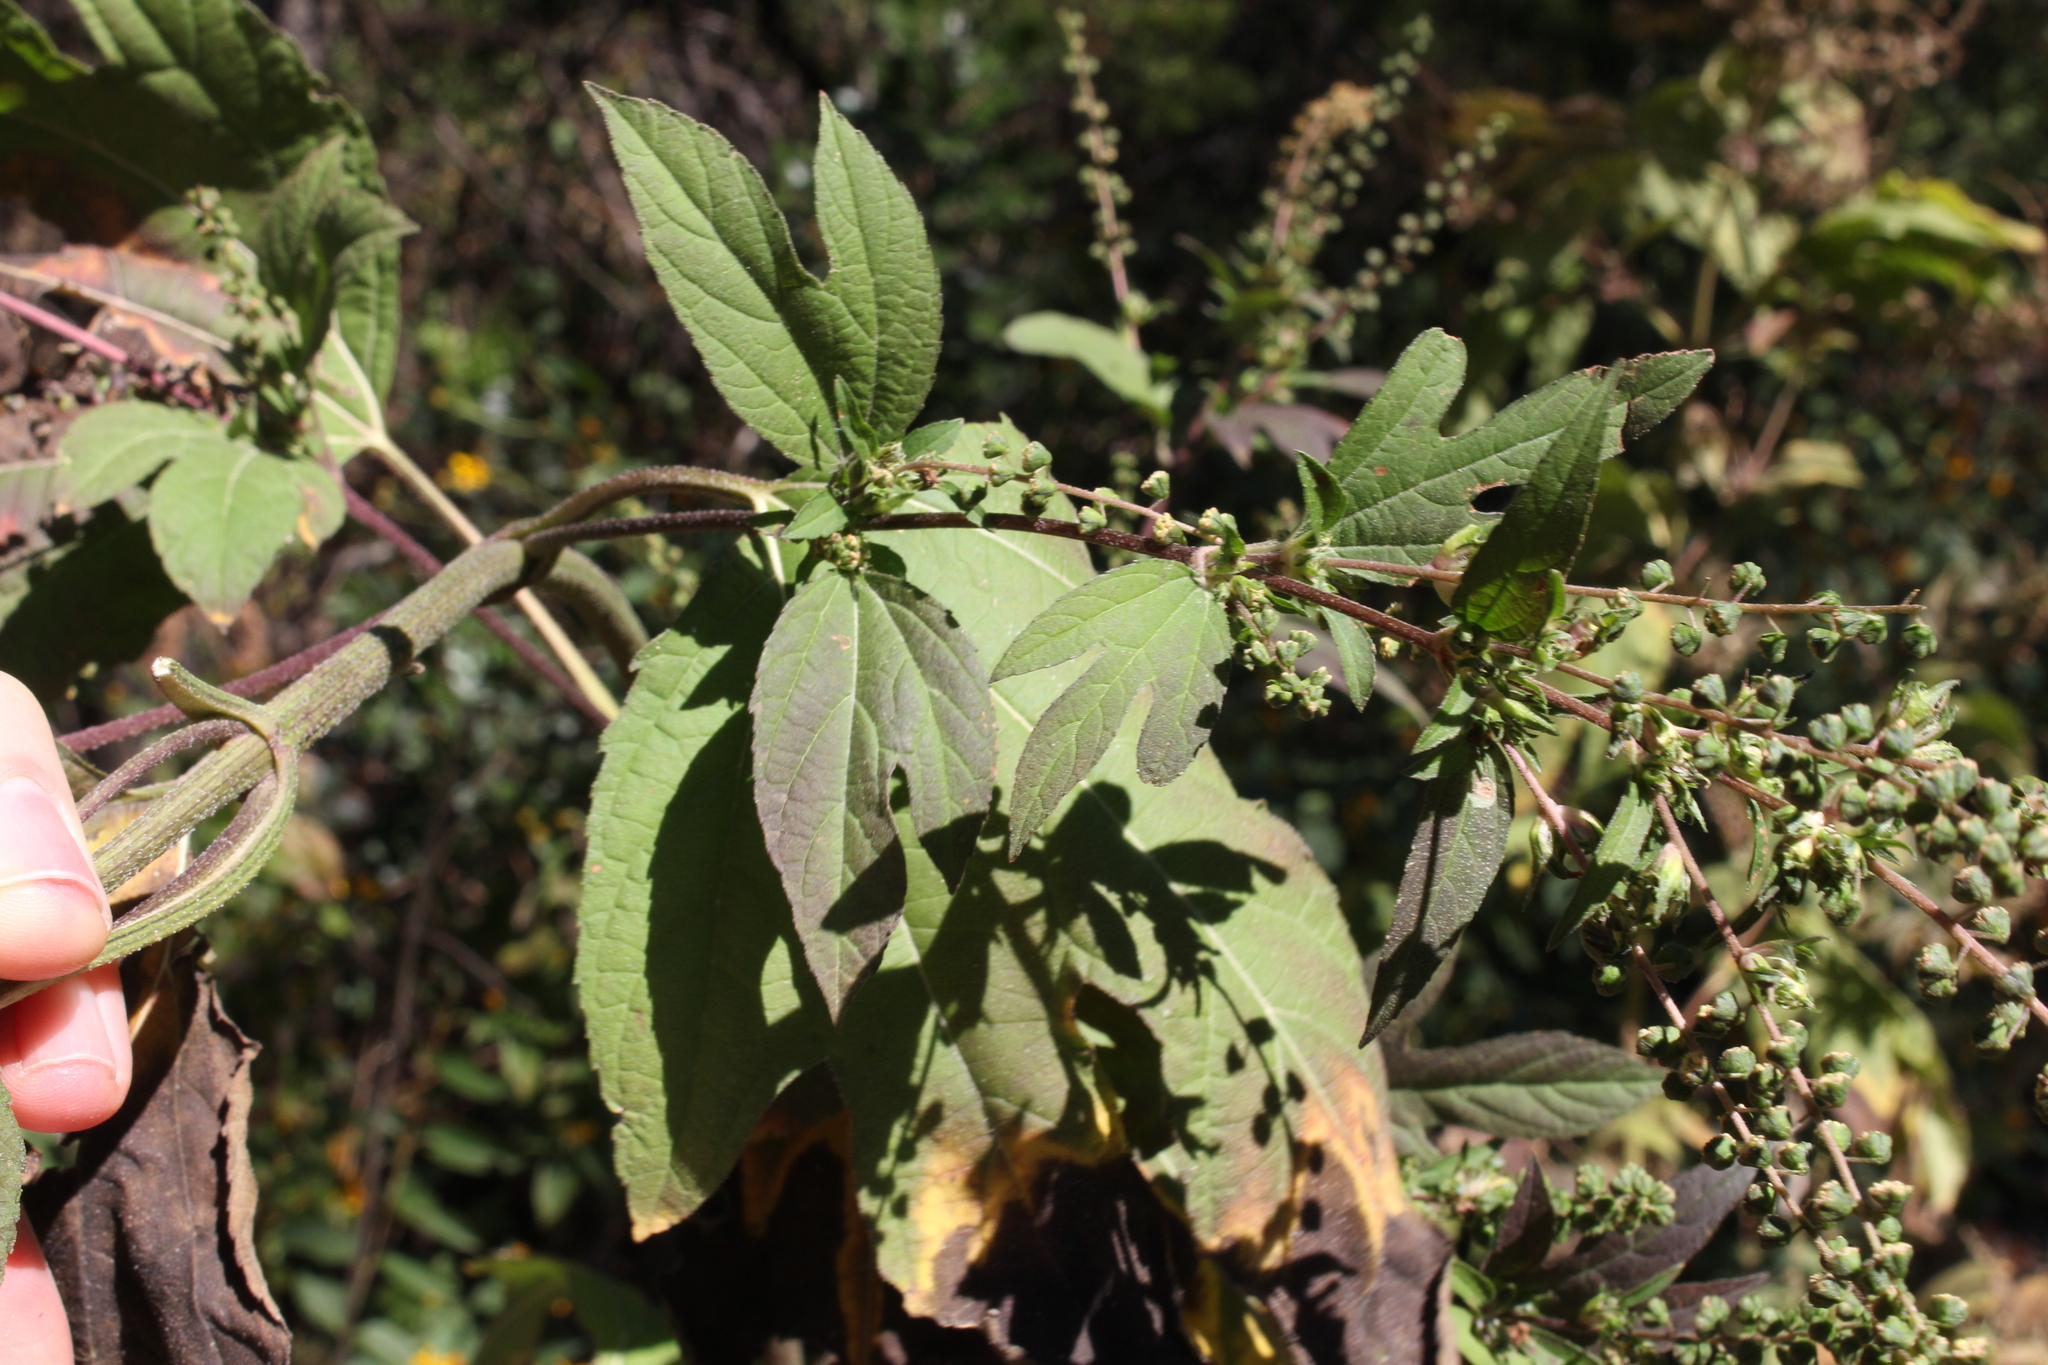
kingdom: Plantae
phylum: Tracheophyta
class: Magnoliopsida
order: Asterales
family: Asteraceae
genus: Ambrosia
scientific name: Ambrosia trifida
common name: Giant ragweed
